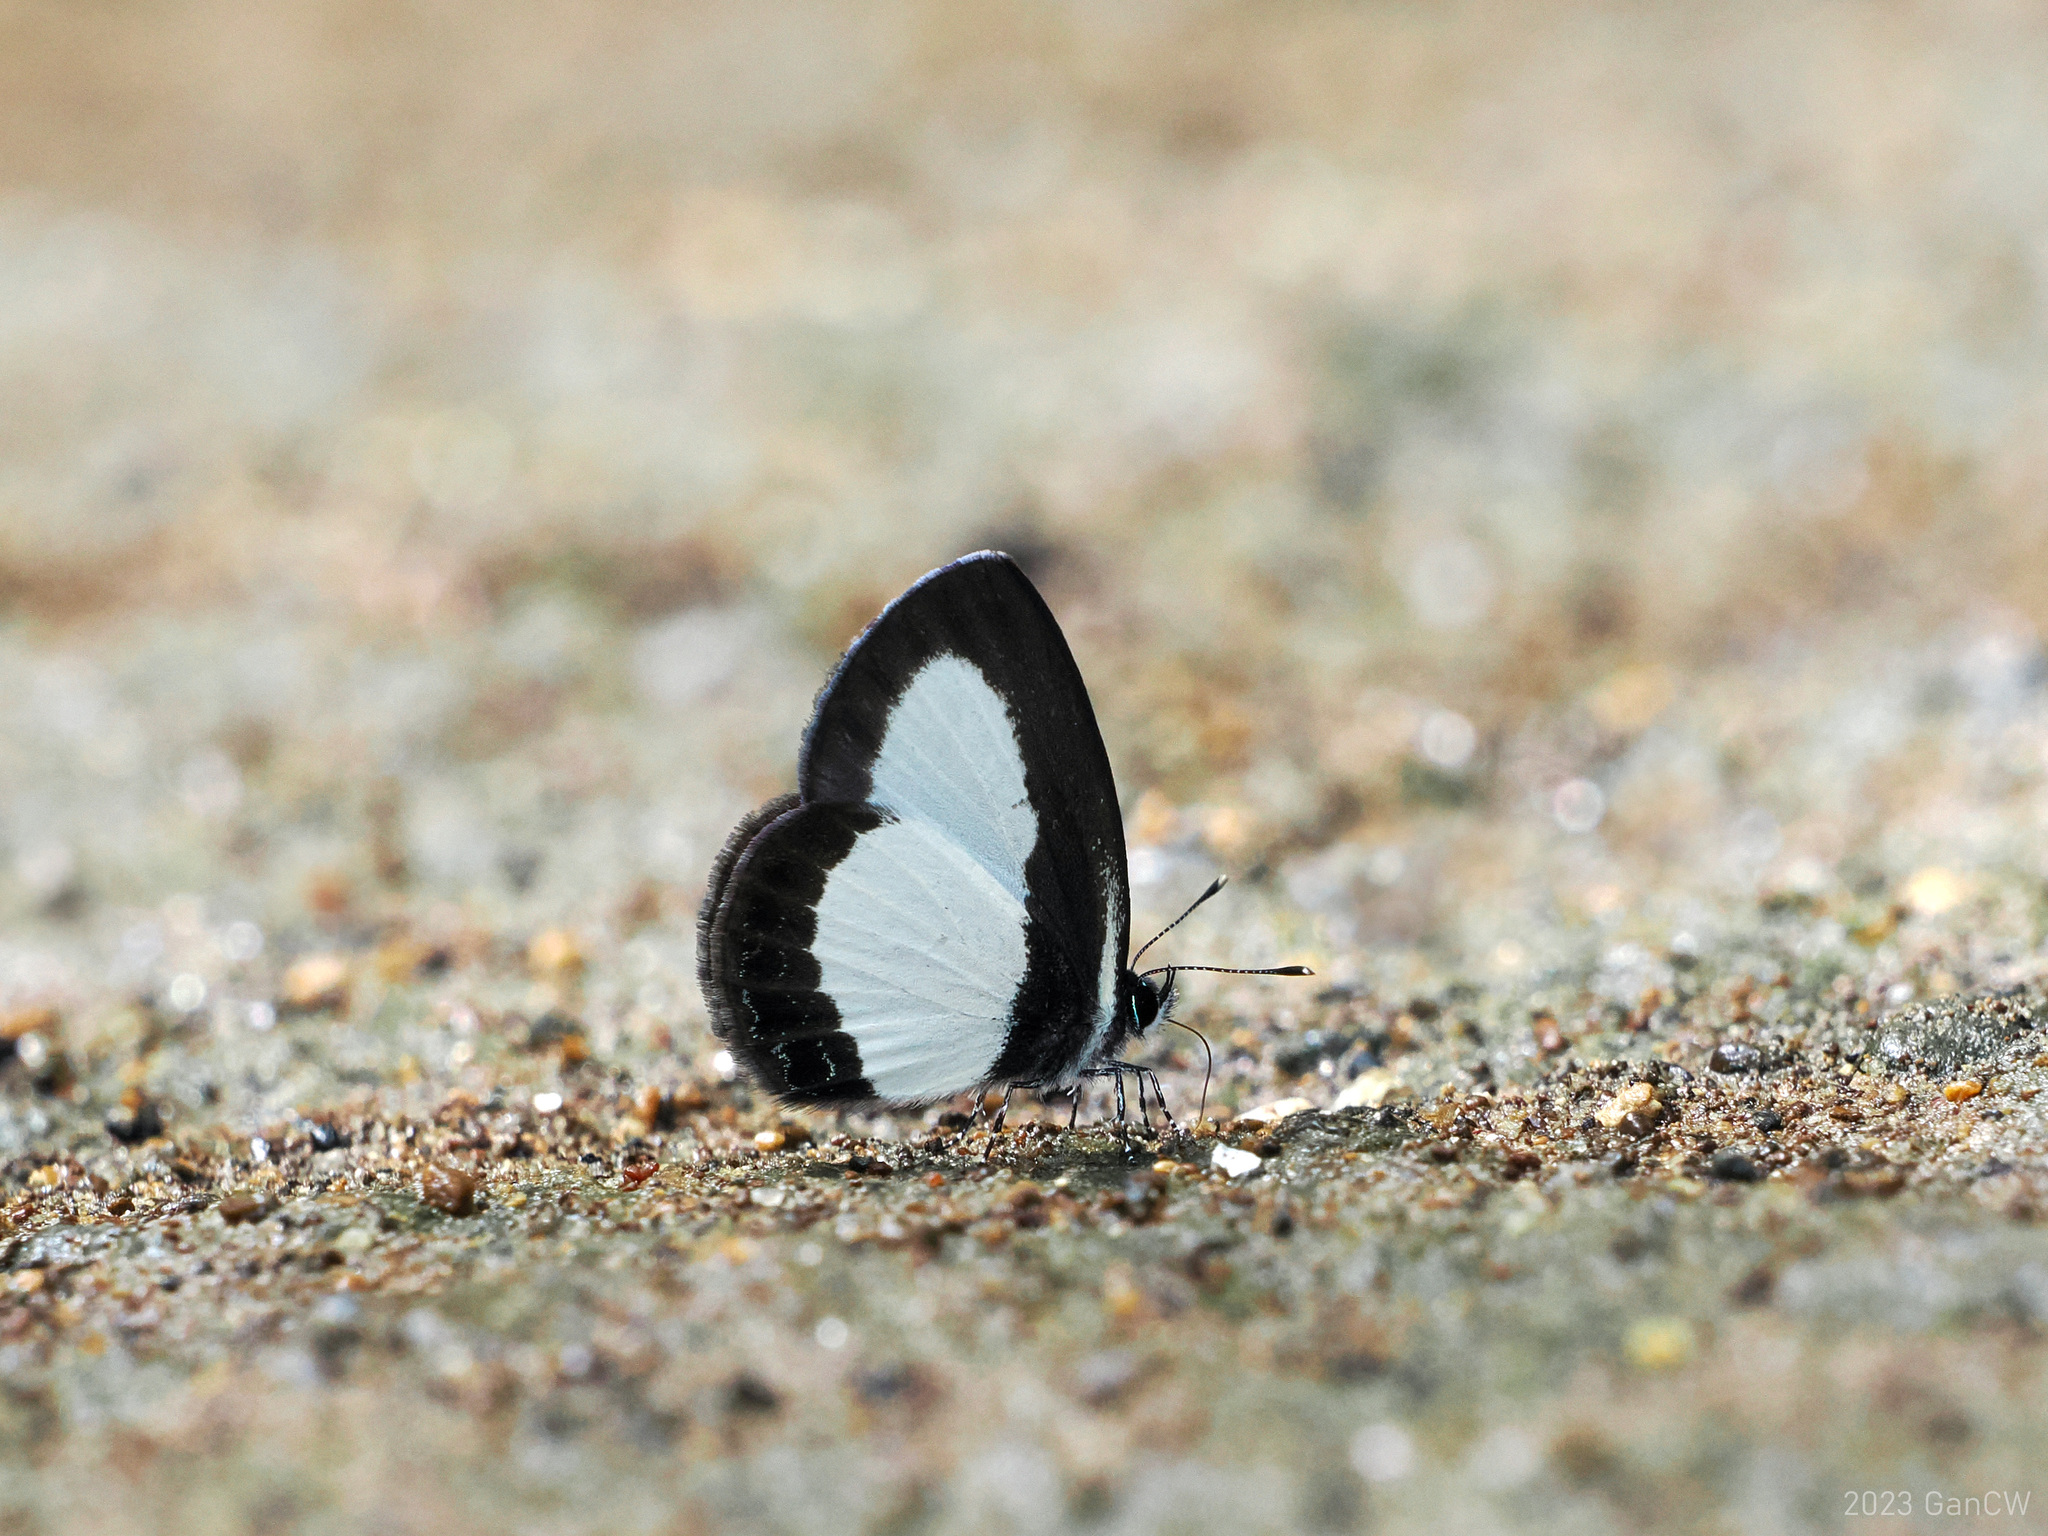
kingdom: Animalia
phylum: Arthropoda
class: Insecta
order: Lepidoptera
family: Lycaenidae
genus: Psychonotis
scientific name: Psychonotis
